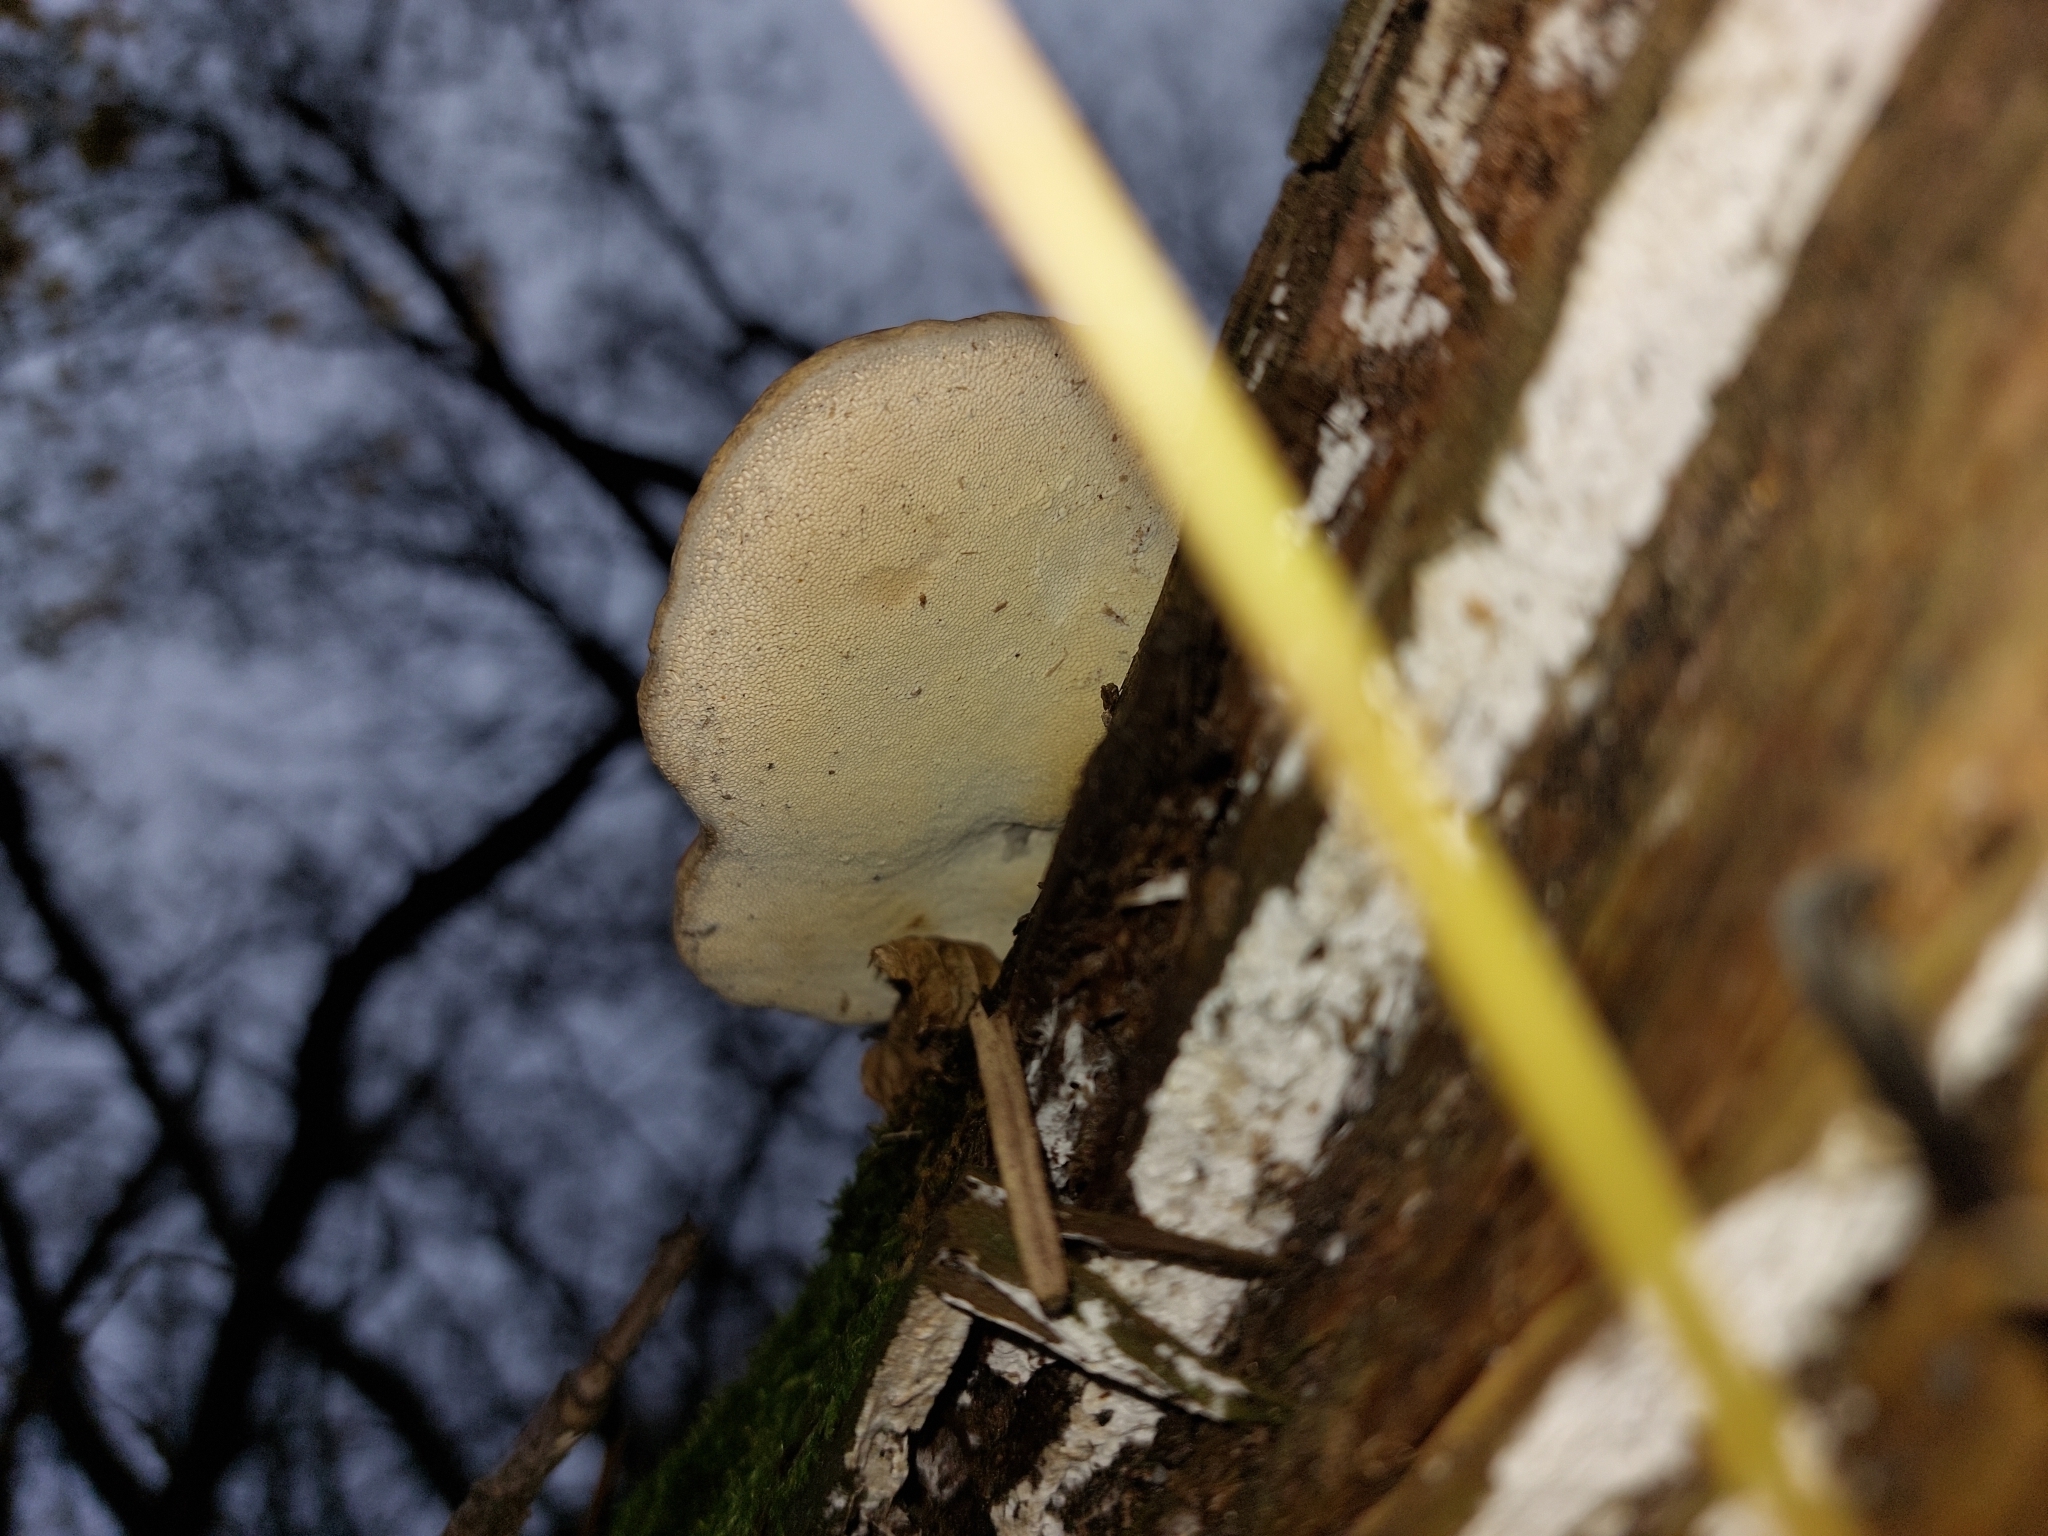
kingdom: Fungi
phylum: Basidiomycota
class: Agaricomycetes
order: Polyporales
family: Fomitopsidaceae
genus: Fomitopsis
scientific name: Fomitopsis pinicola
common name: Red-belted bracket
